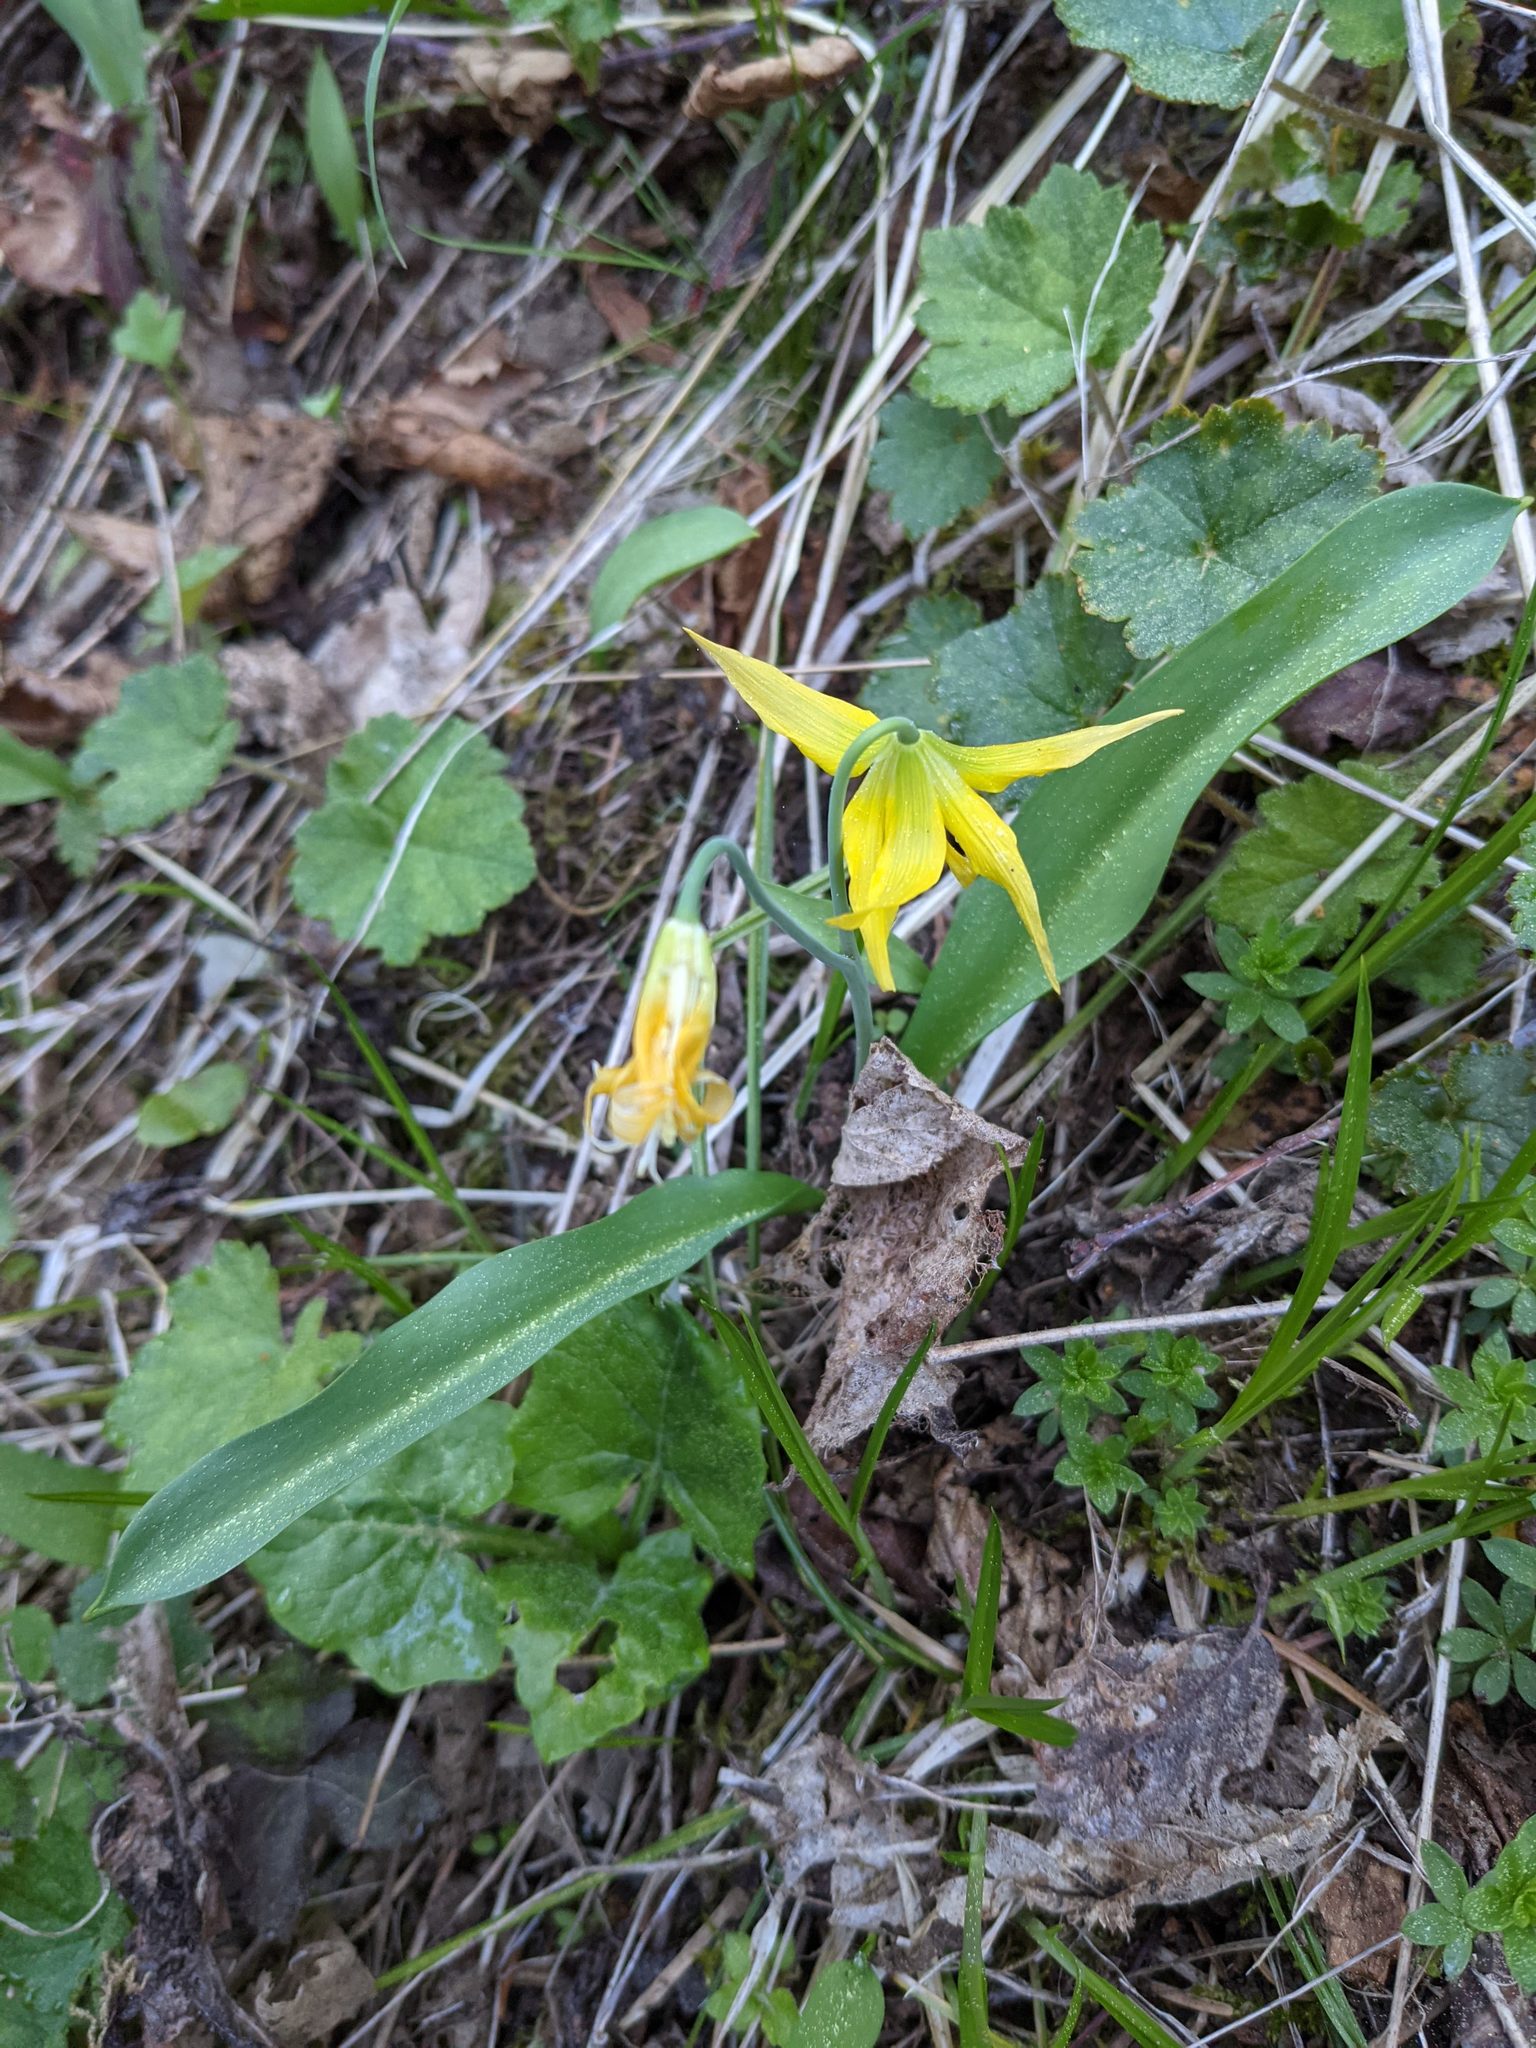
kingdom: Plantae
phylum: Tracheophyta
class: Liliopsida
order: Liliales
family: Liliaceae
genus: Erythronium
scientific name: Erythronium grandiflorum
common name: Avalanche-lily
